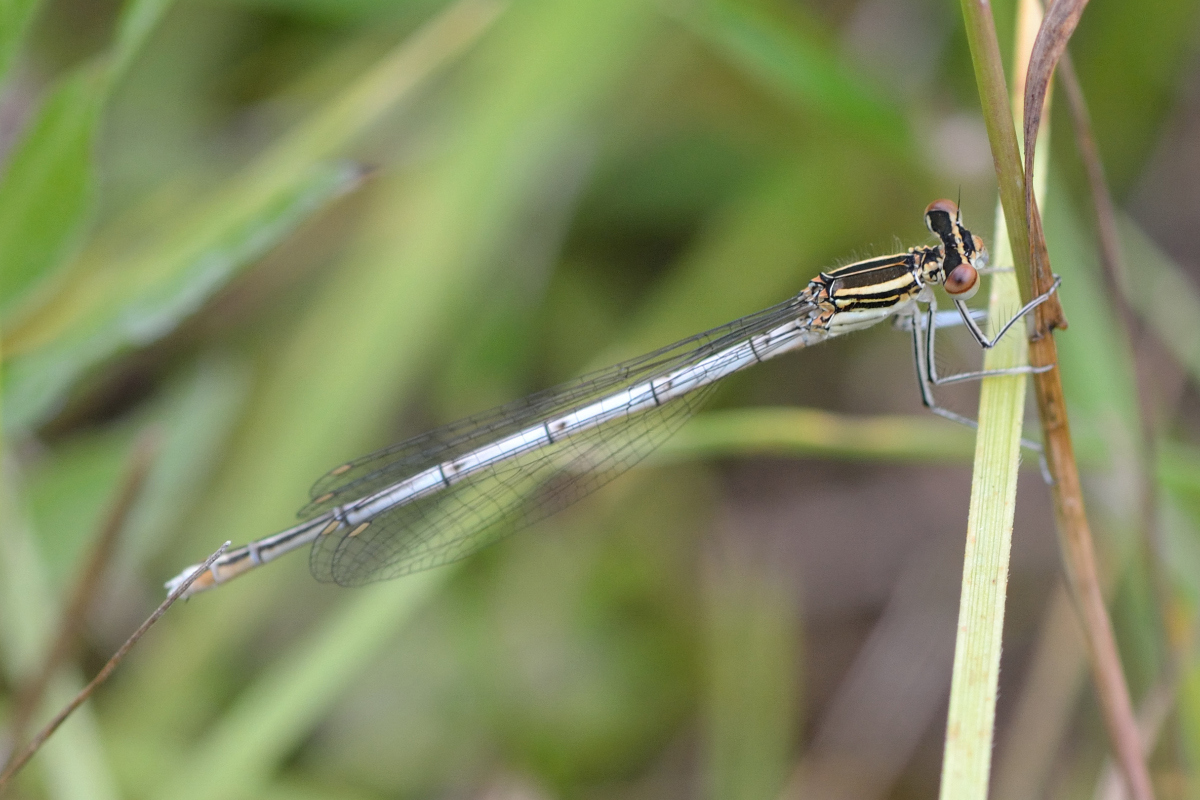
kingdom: Animalia
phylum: Arthropoda
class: Insecta
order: Odonata
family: Platycnemididae
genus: Platycnemis
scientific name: Platycnemis pennipes
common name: White-legged damselfly
